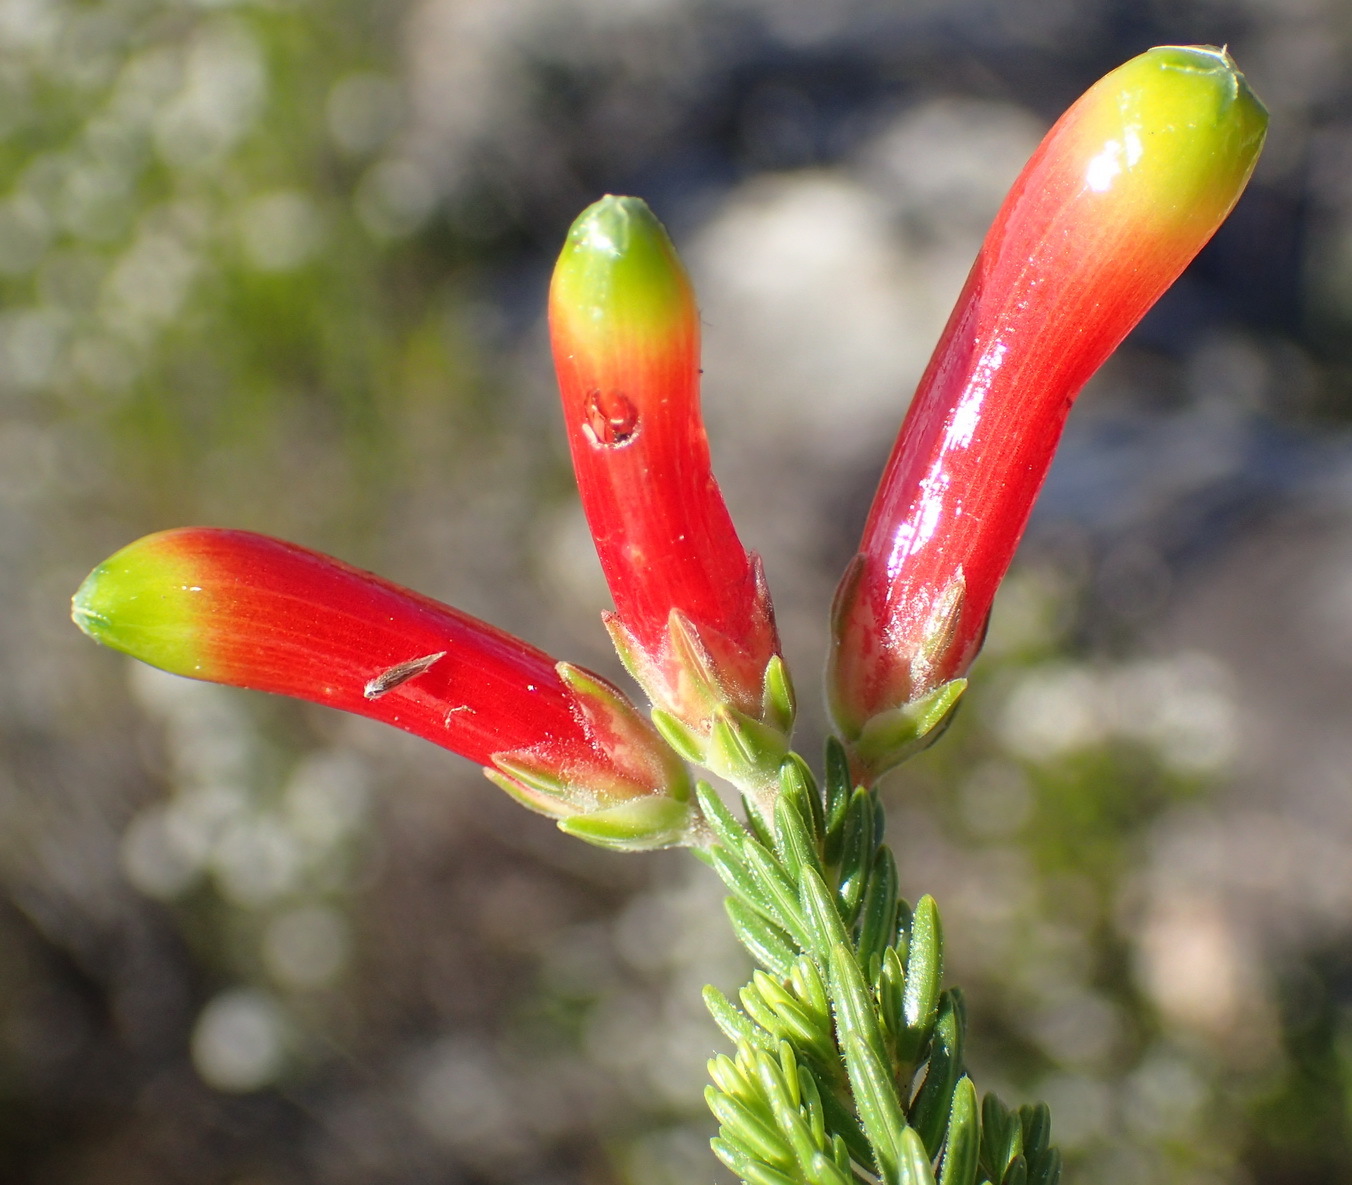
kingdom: Plantae
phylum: Tracheophyta
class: Magnoliopsida
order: Ericales
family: Ericaceae
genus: Erica
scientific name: Erica discolor
